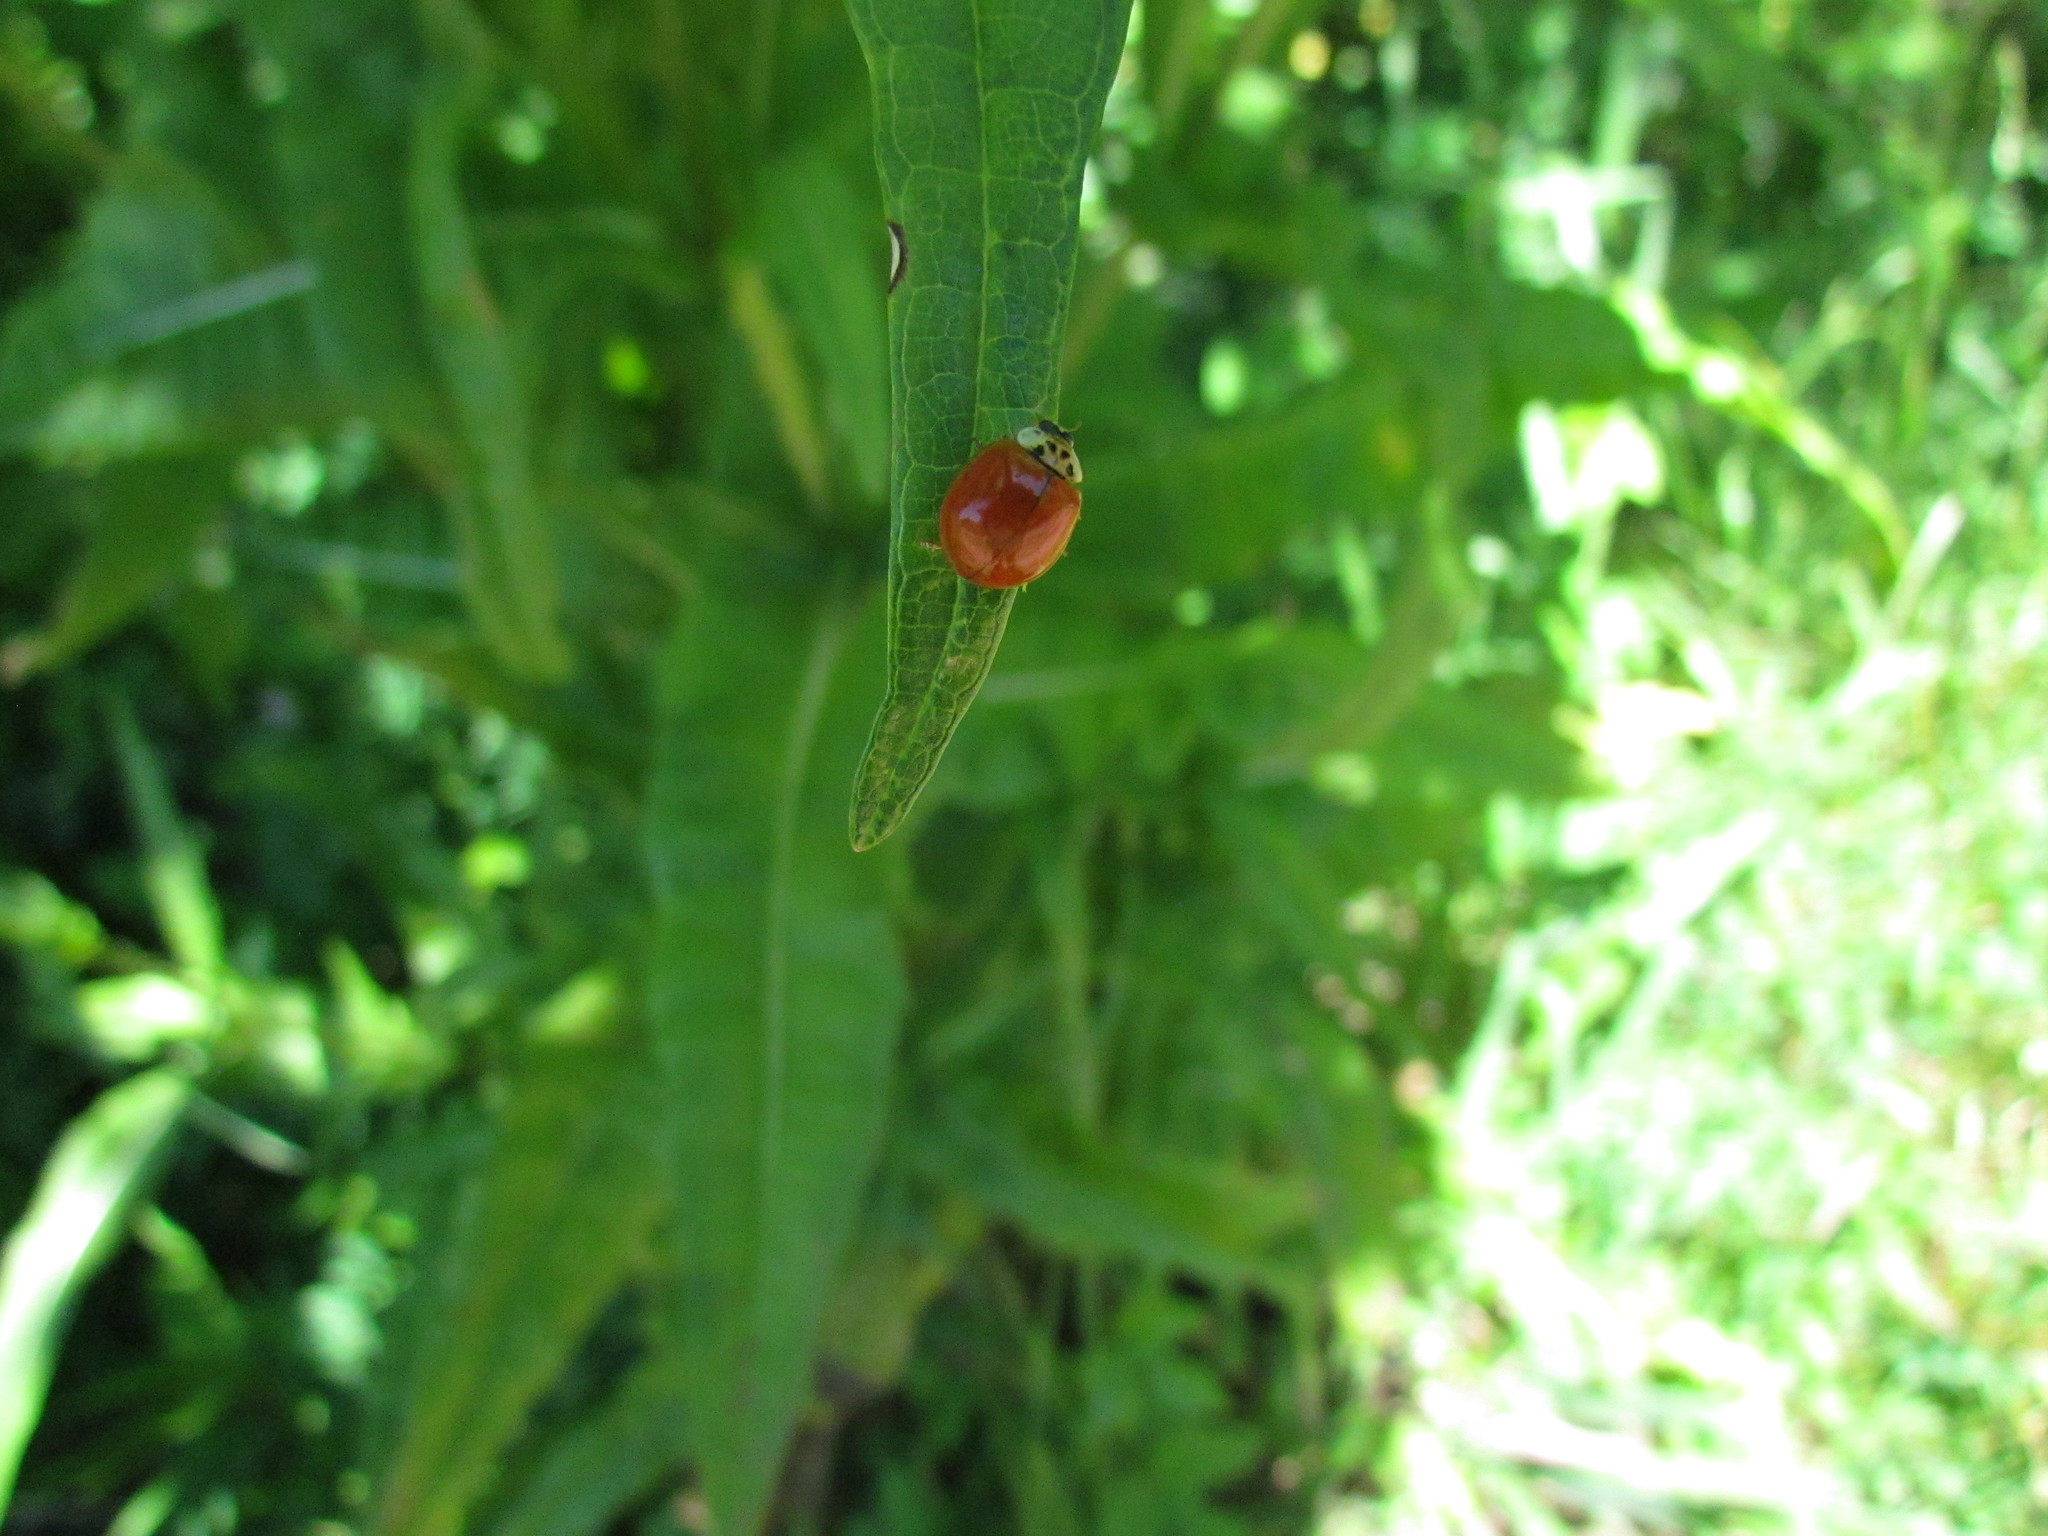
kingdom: Animalia
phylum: Arthropoda
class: Insecta
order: Coleoptera
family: Coccinellidae
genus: Harmonia
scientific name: Harmonia axyridis
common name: Harlequin ladybird
